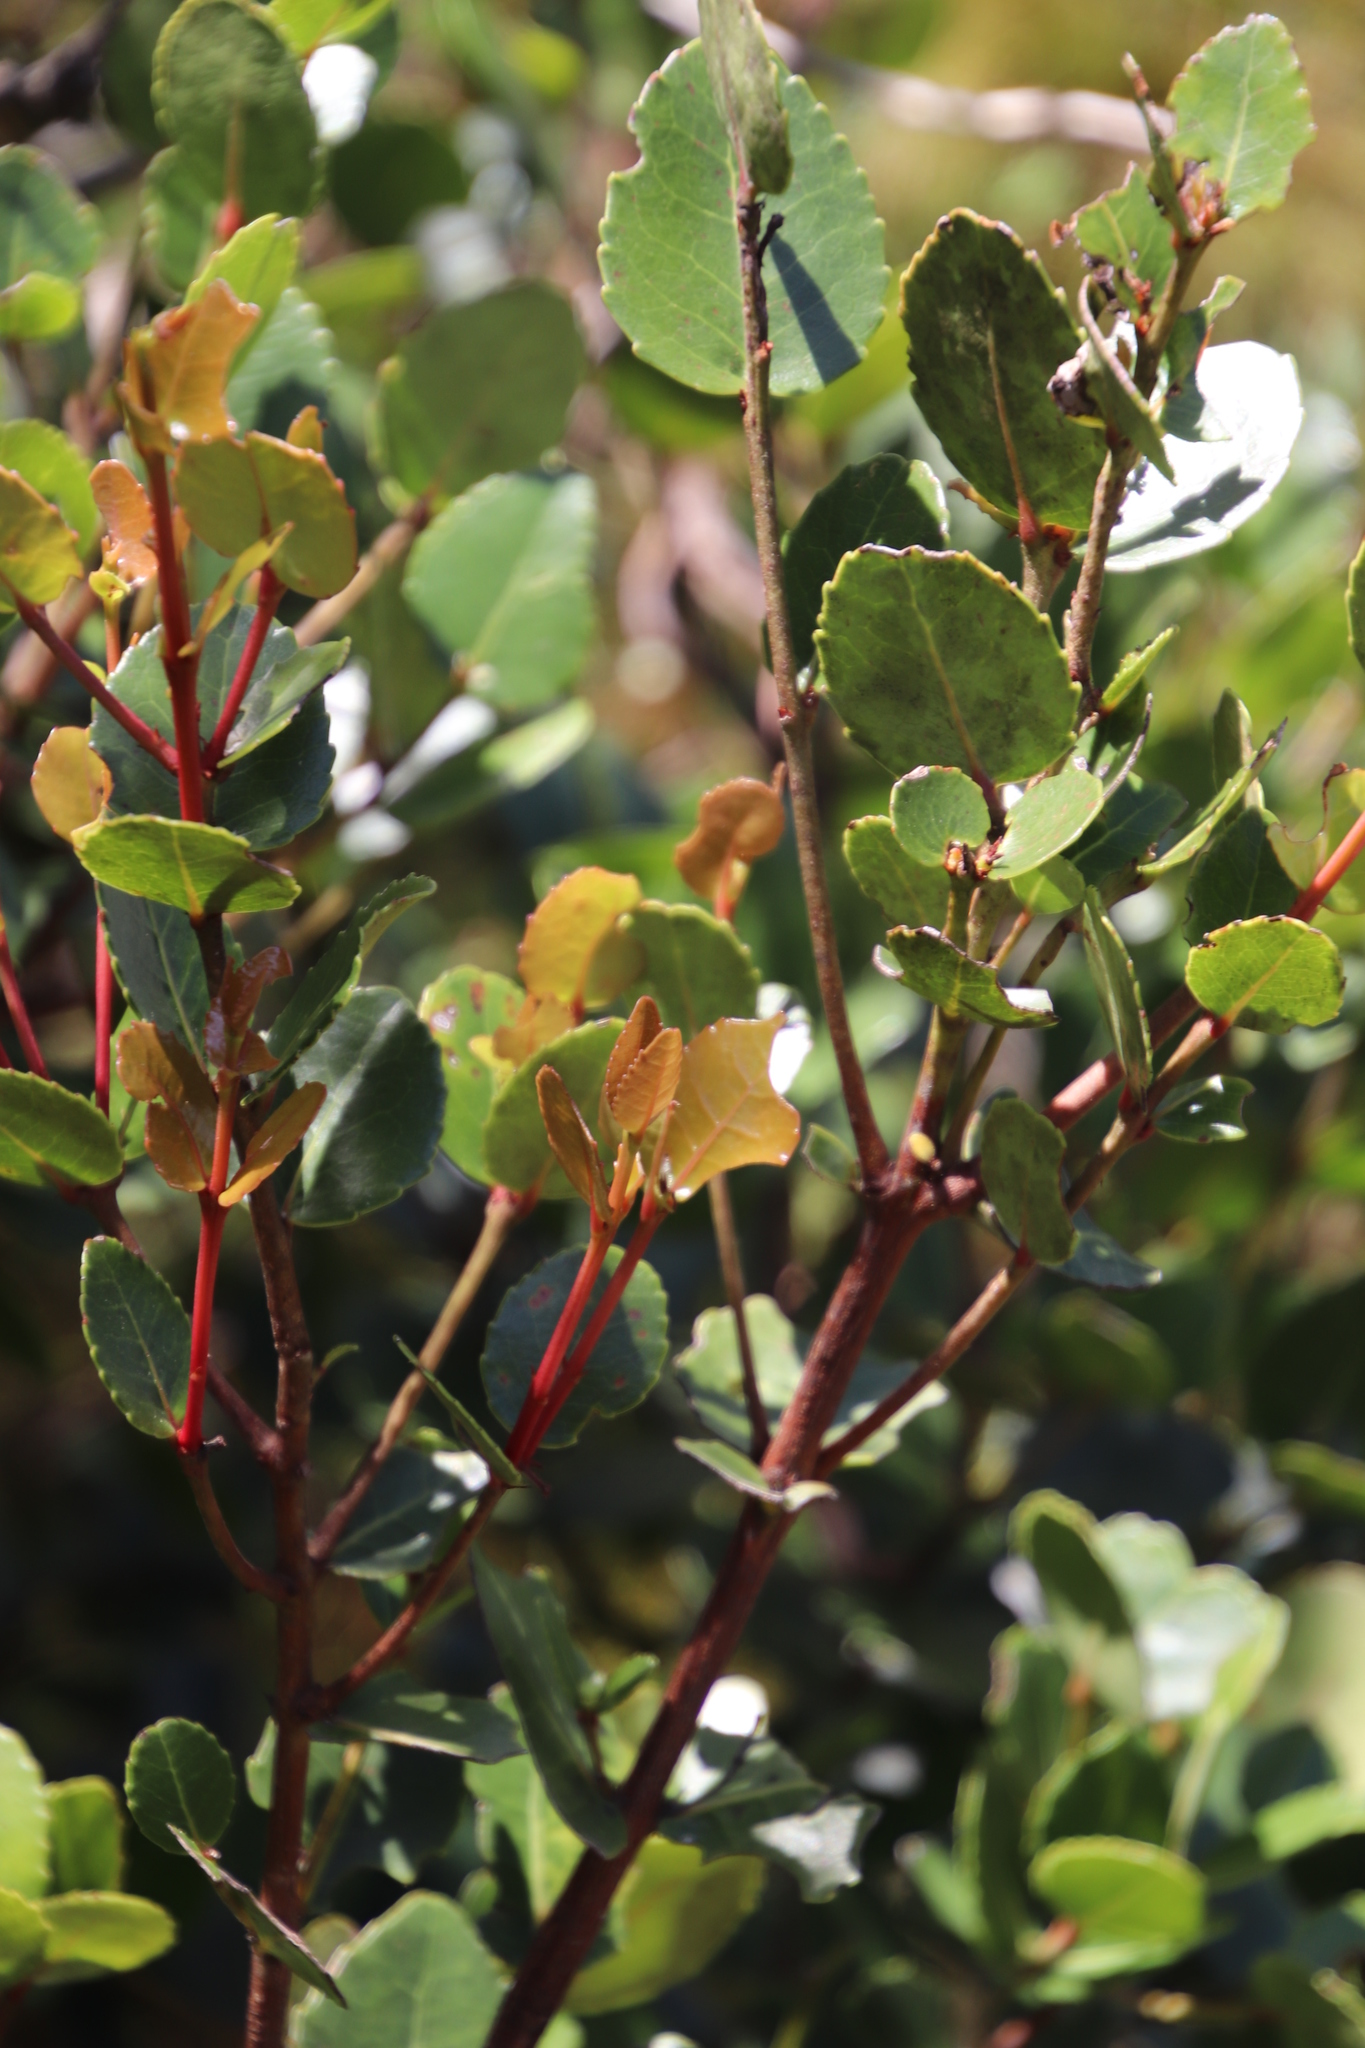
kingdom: Plantae
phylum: Tracheophyta
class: Magnoliopsida
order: Celastrales
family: Celastraceae
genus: Cassine
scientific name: Cassine peragua
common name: Cape saffron
